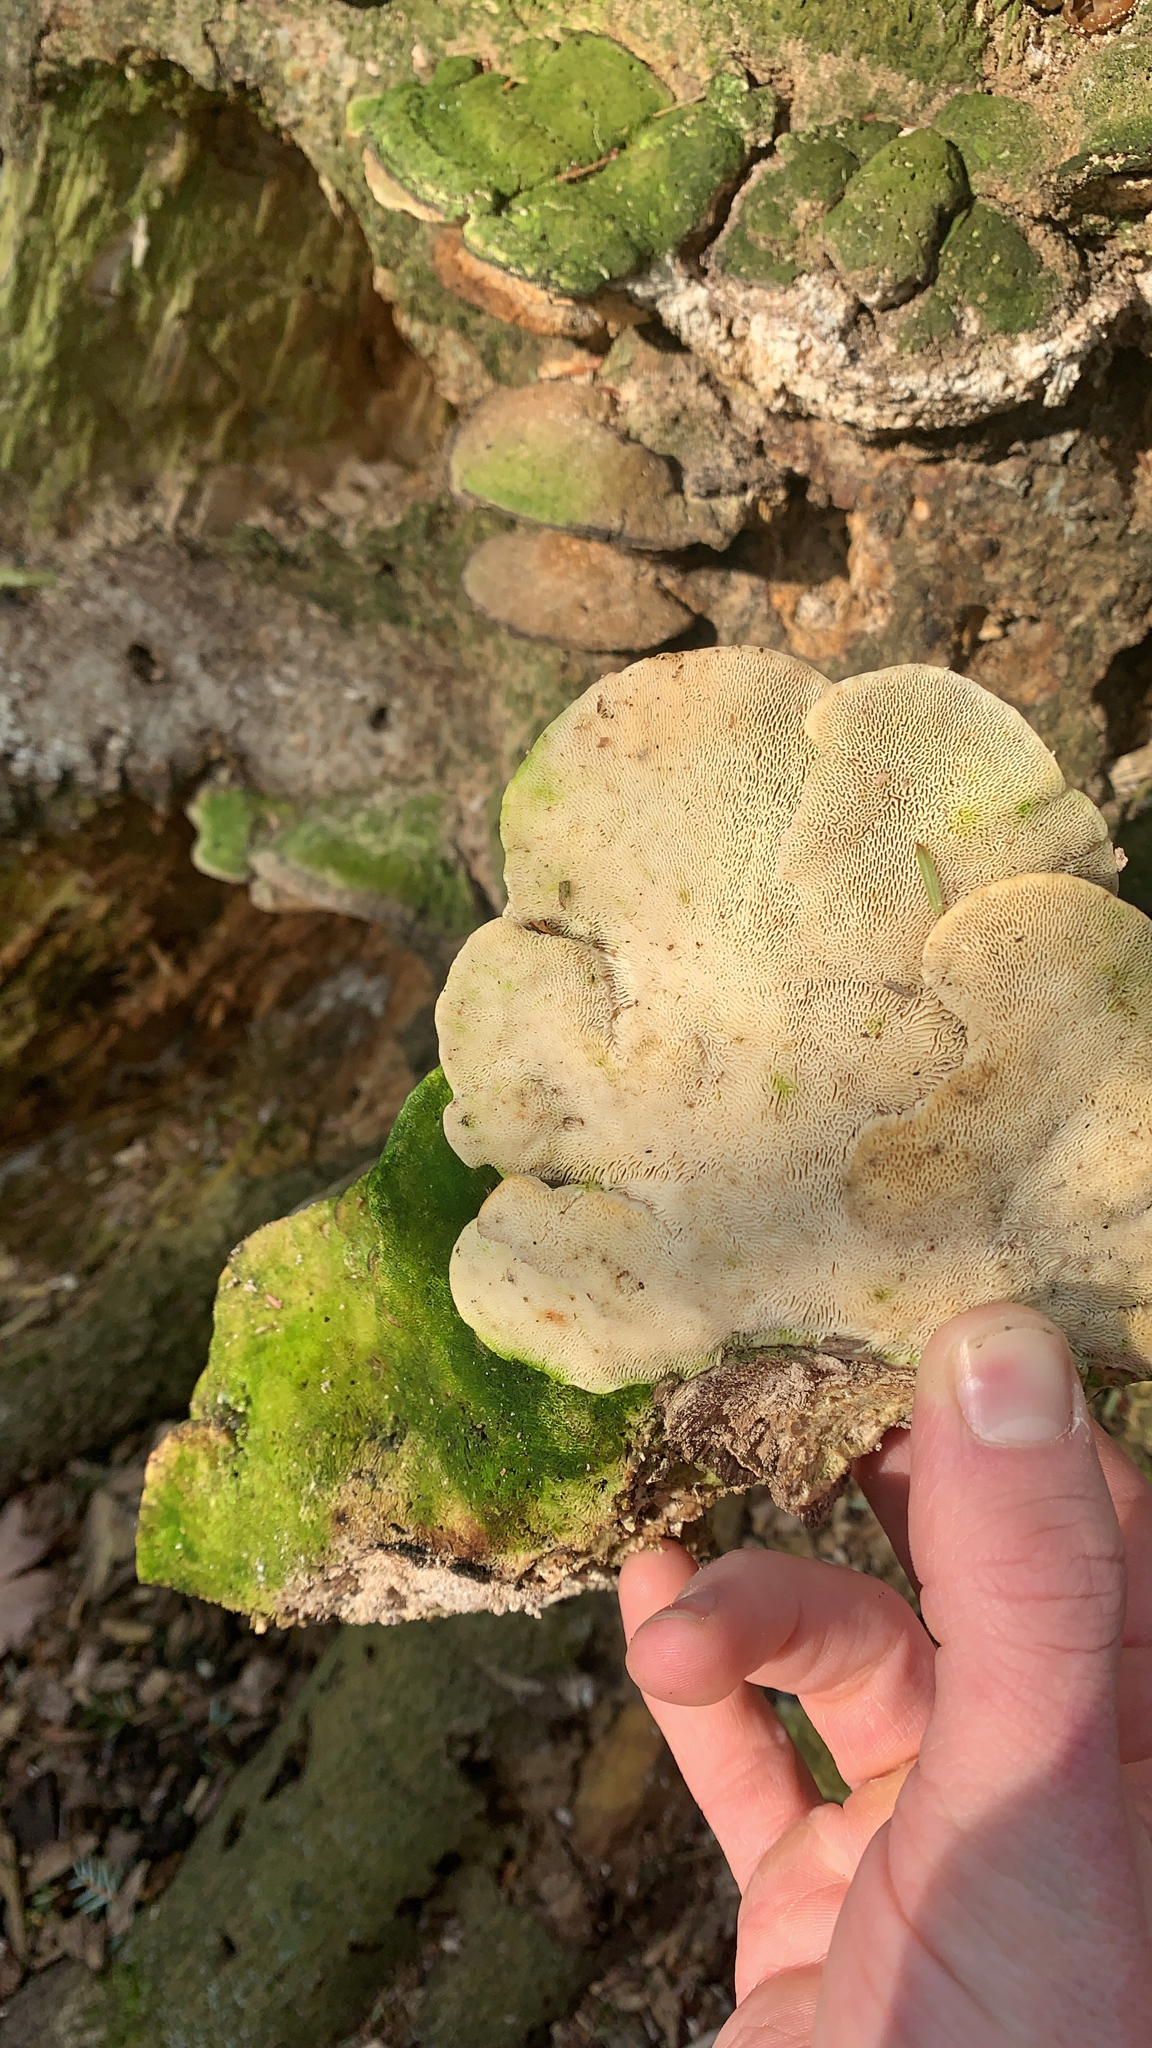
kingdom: Fungi
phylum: Basidiomycota
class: Agaricomycetes
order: Polyporales
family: Polyporaceae
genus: Trametes
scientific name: Trametes gibbosa
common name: Lumpy bracket
